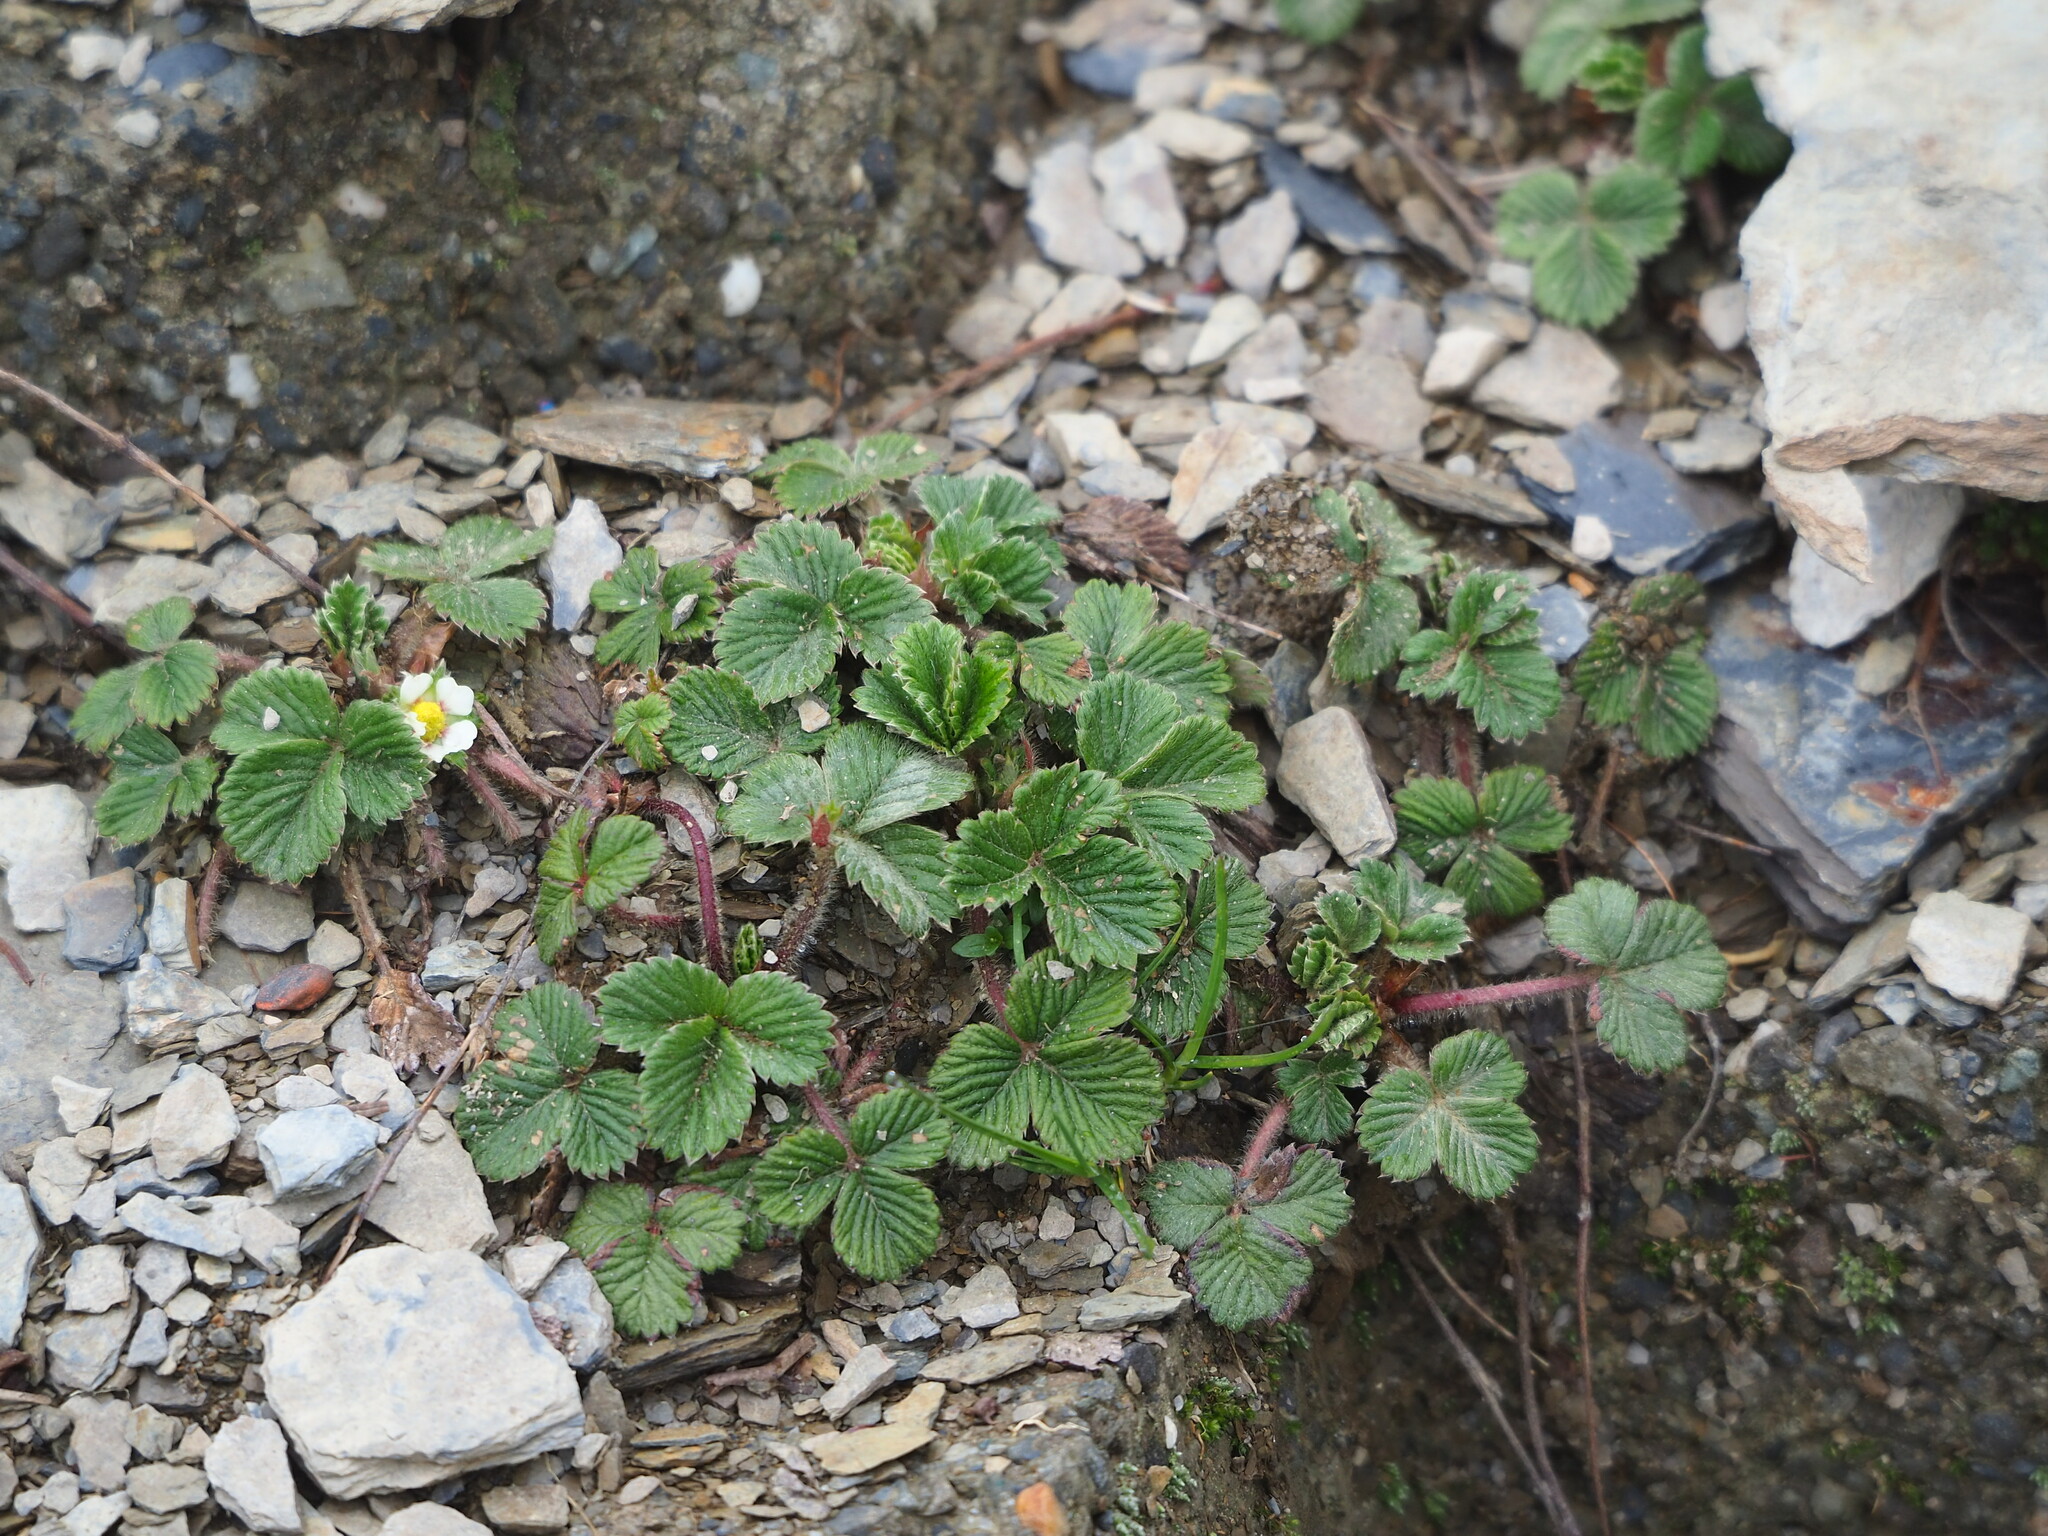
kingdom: Plantae
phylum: Tracheophyta
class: Magnoliopsida
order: Rosales
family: Rosaceae
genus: Fragaria
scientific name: Fragaria nilgerrensis
